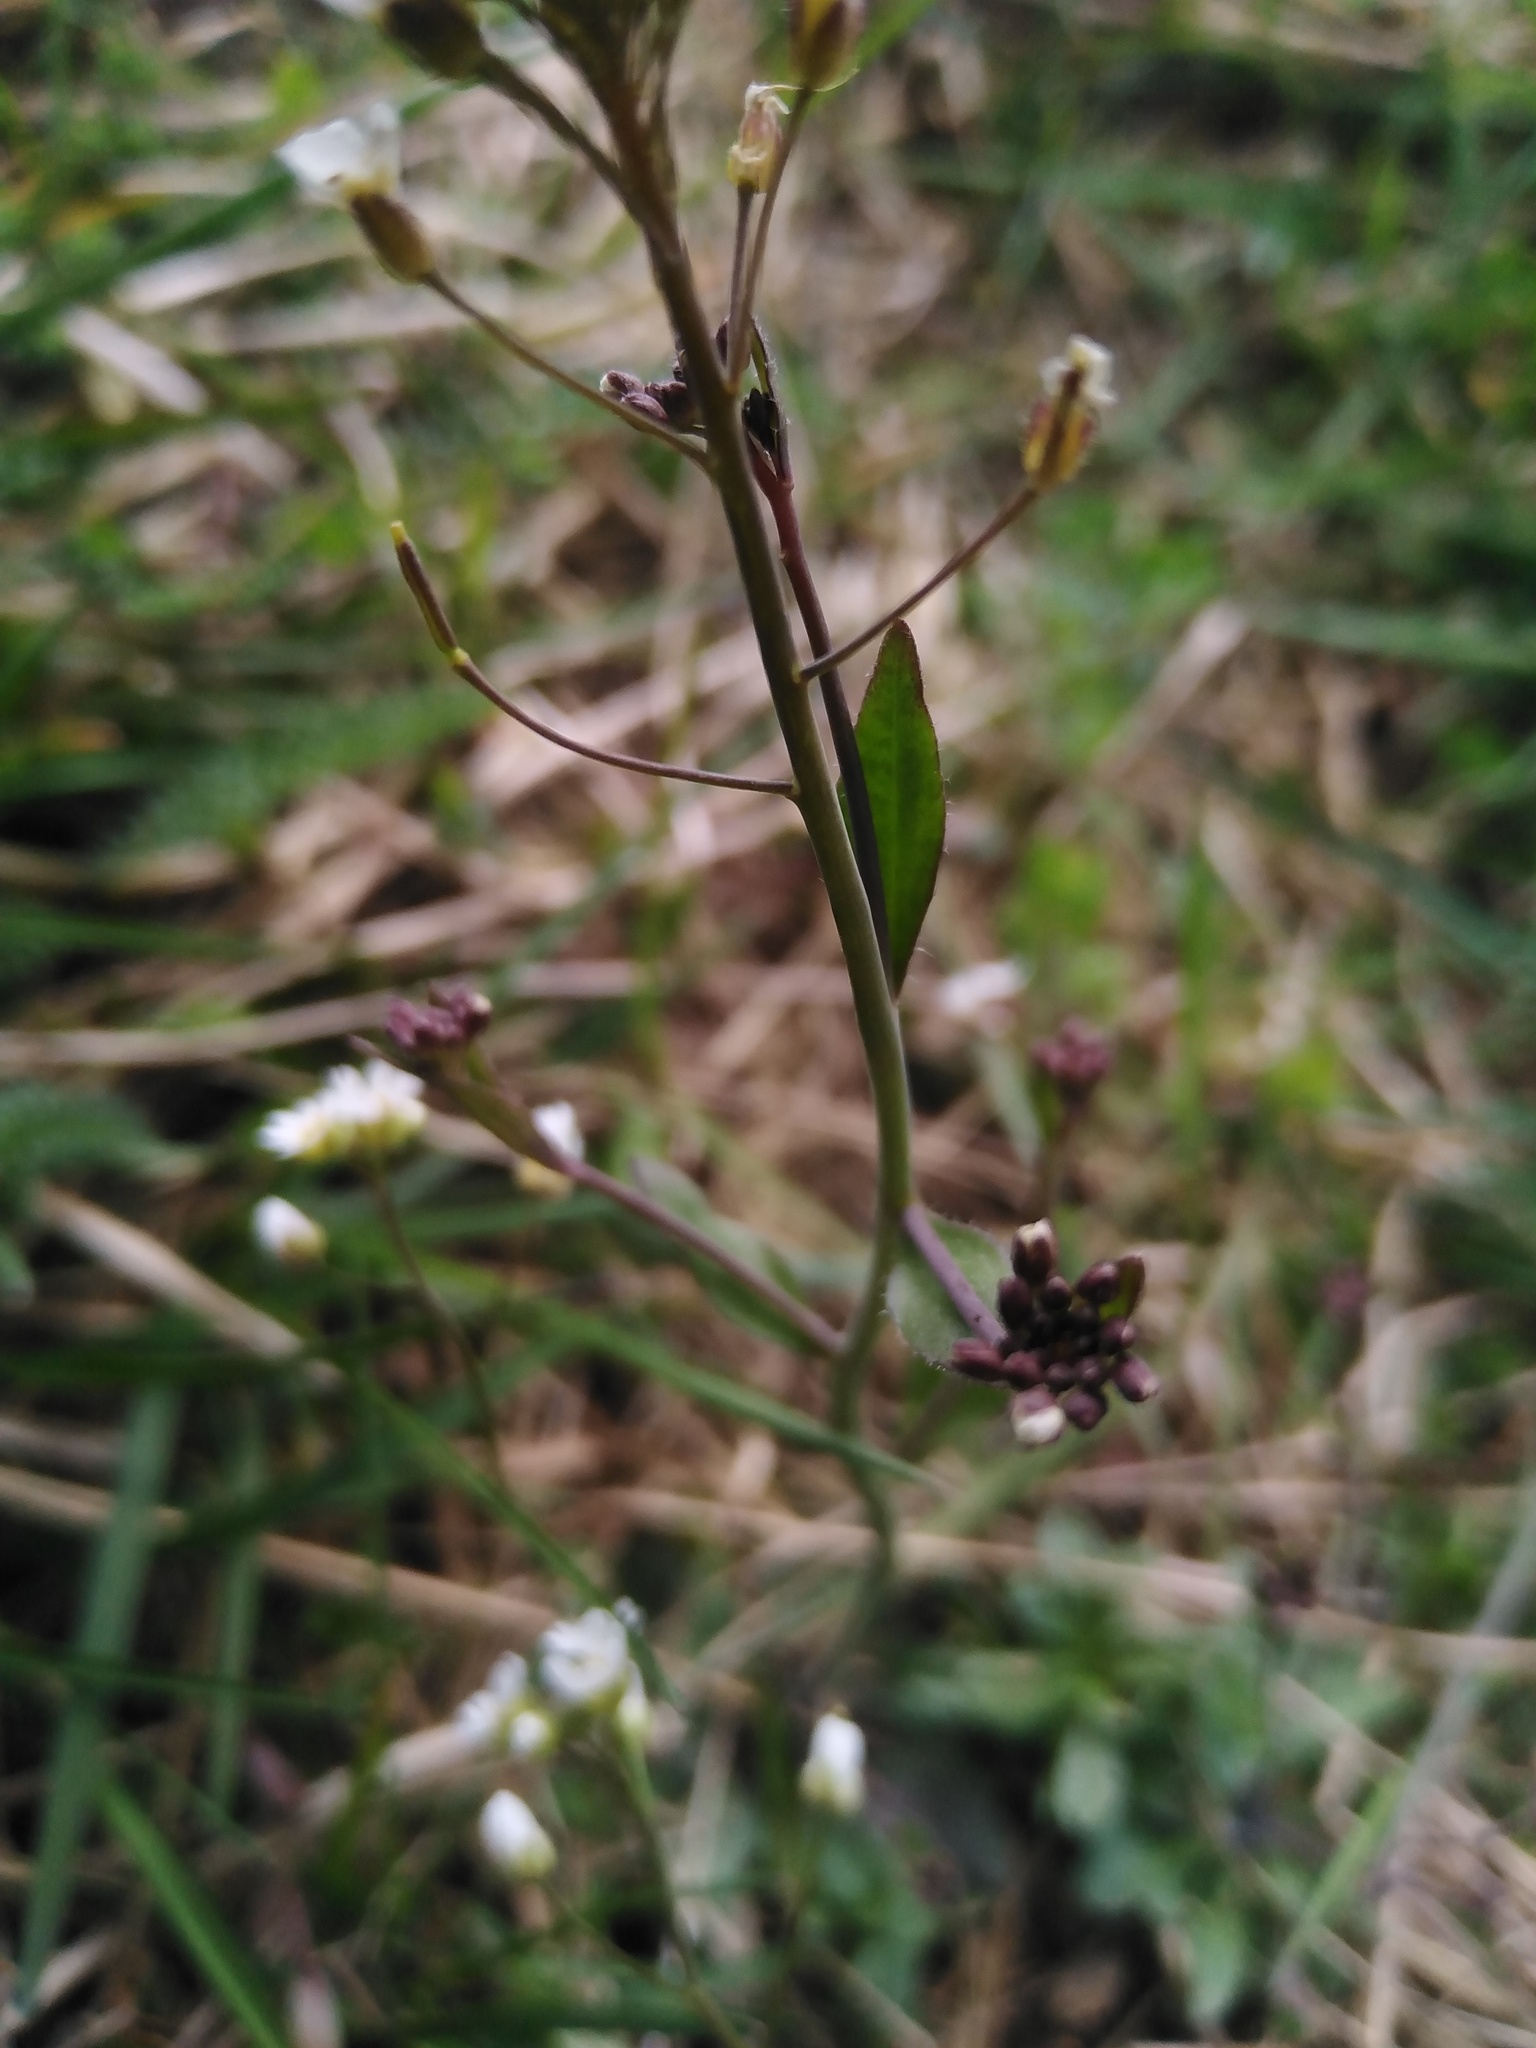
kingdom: Plantae
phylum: Tracheophyta
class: Magnoliopsida
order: Brassicales
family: Brassicaceae
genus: Capsella
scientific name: Capsella bursa-pastoris
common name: Shepherd's purse
